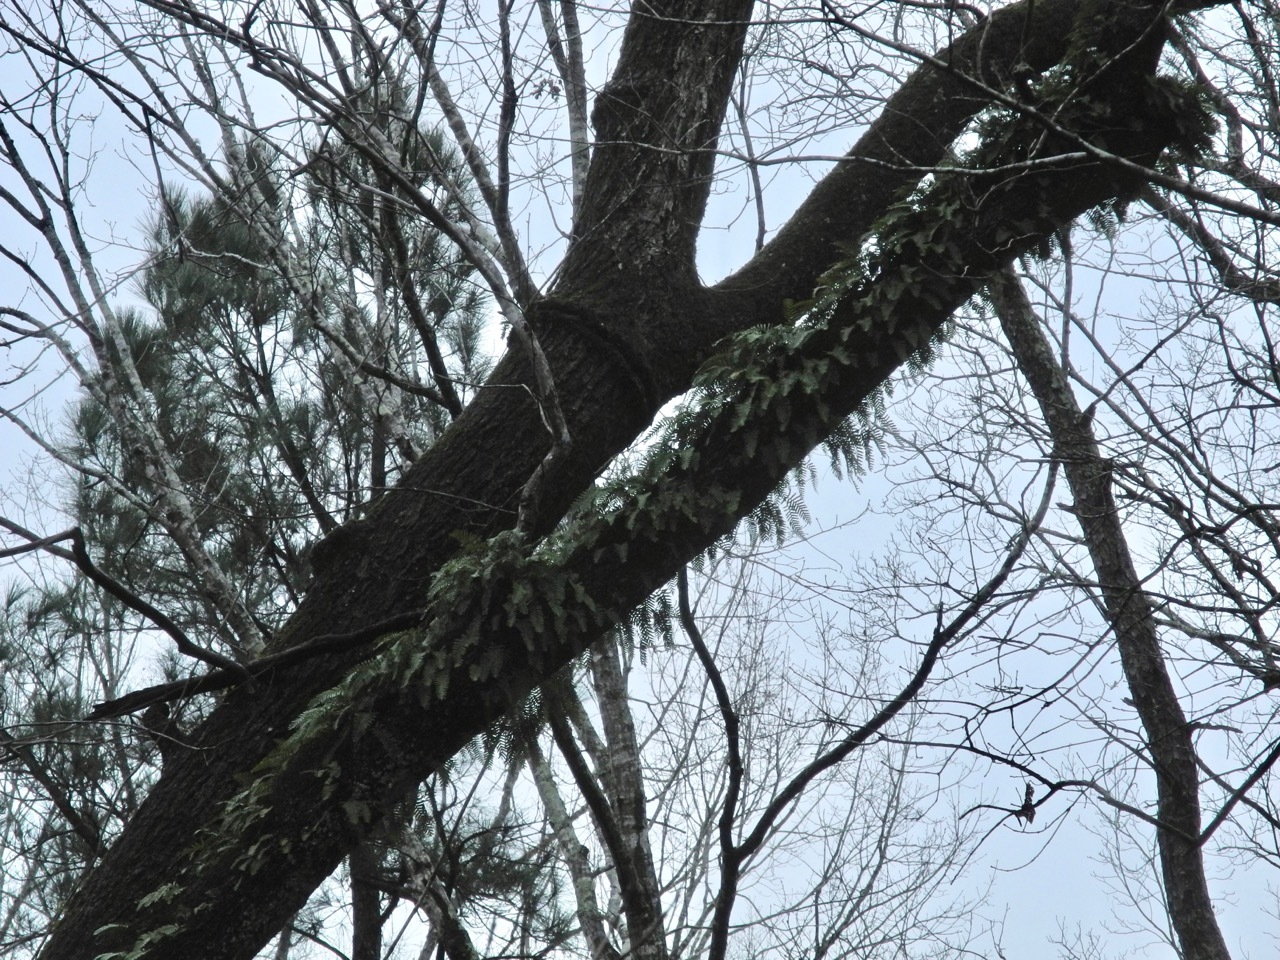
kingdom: Plantae
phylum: Tracheophyta
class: Polypodiopsida
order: Polypodiales
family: Polypodiaceae
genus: Pleopeltis
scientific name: Pleopeltis michauxiana
